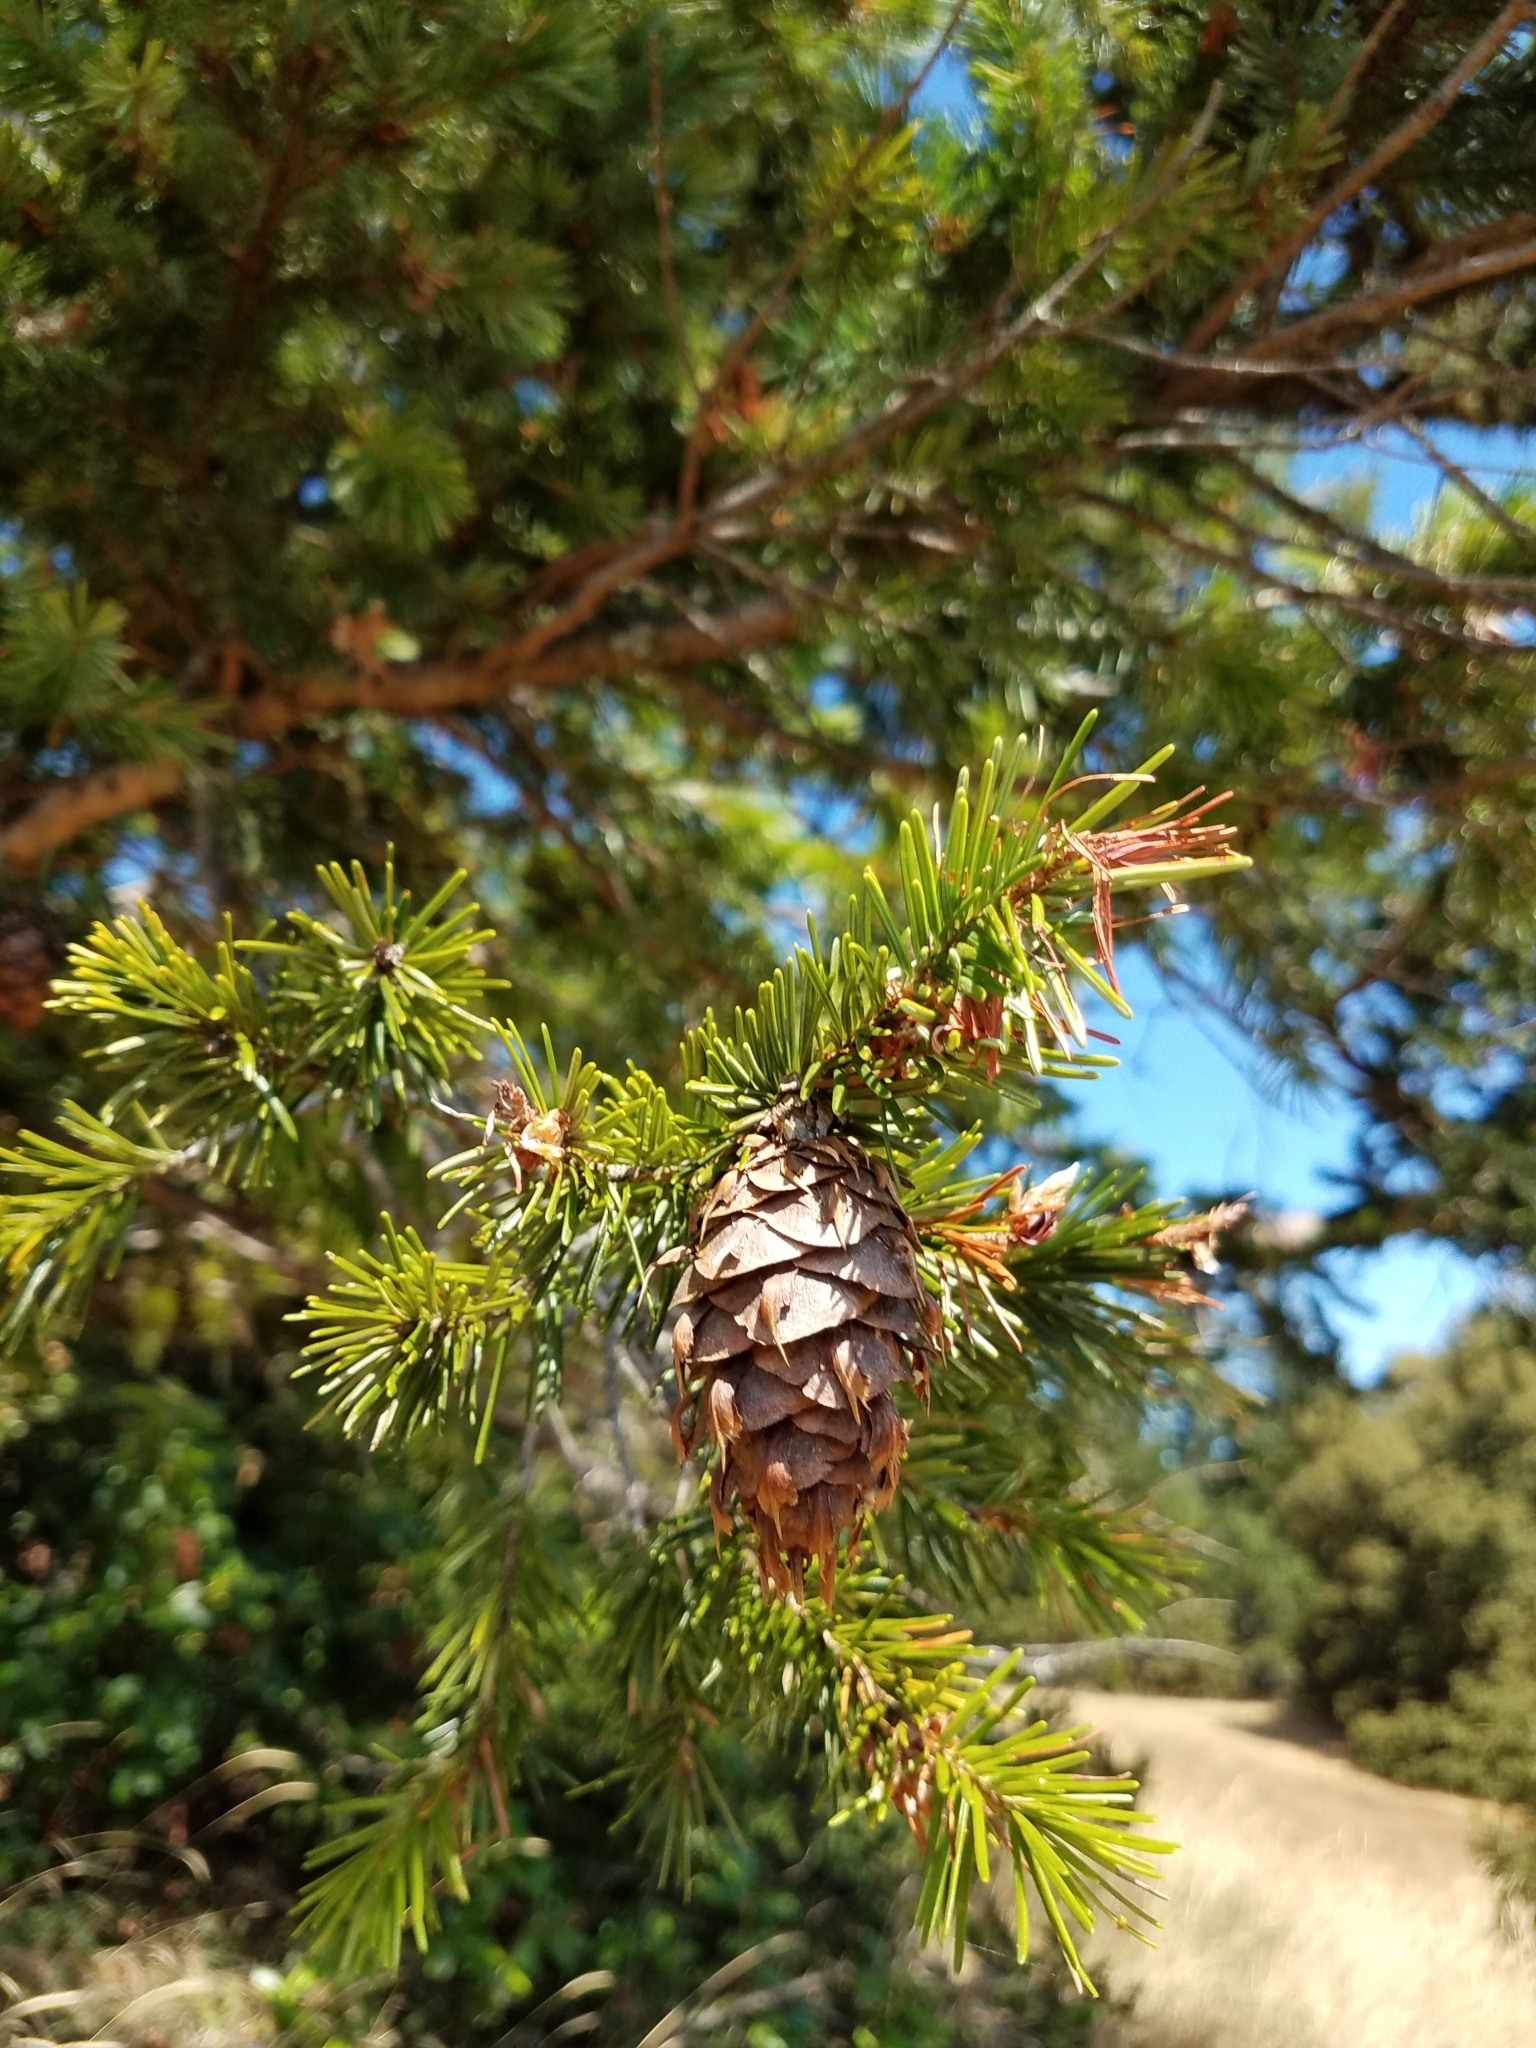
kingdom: Plantae
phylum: Tracheophyta
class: Pinopsida
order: Pinales
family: Pinaceae
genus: Pseudotsuga
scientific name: Pseudotsuga menziesii
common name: Douglas fir
